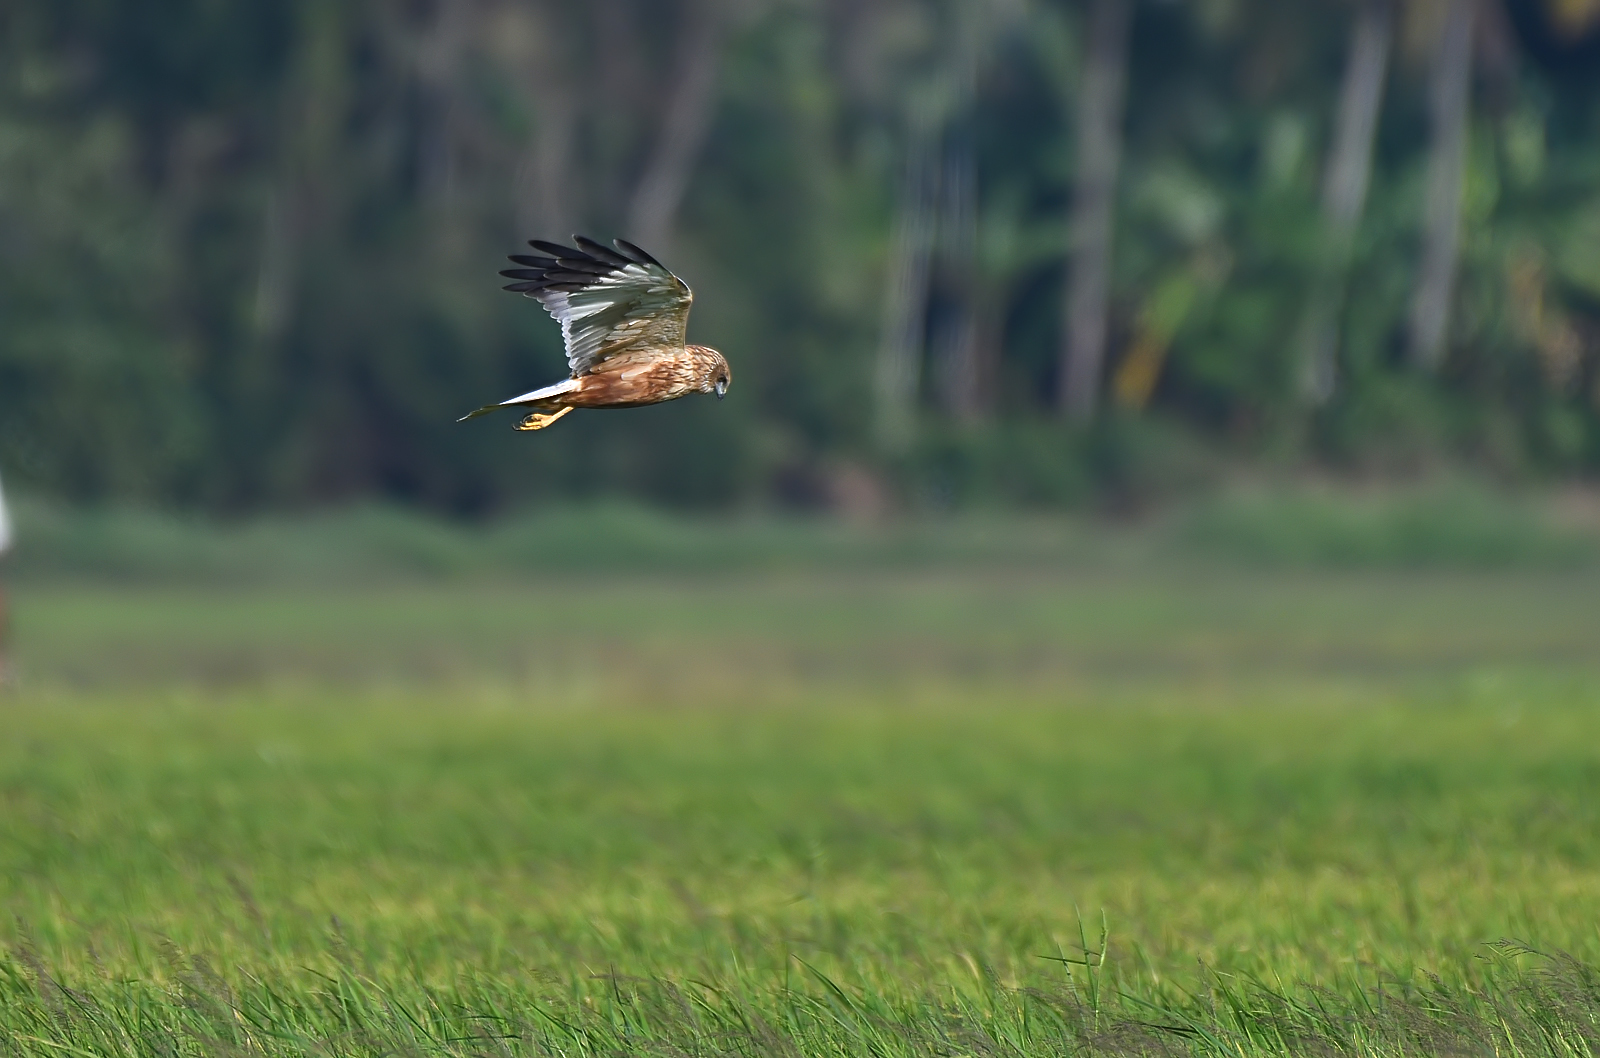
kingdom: Animalia
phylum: Chordata
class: Aves
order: Accipitriformes
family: Accipitridae
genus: Circus
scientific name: Circus aeruginosus
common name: Western marsh harrier
